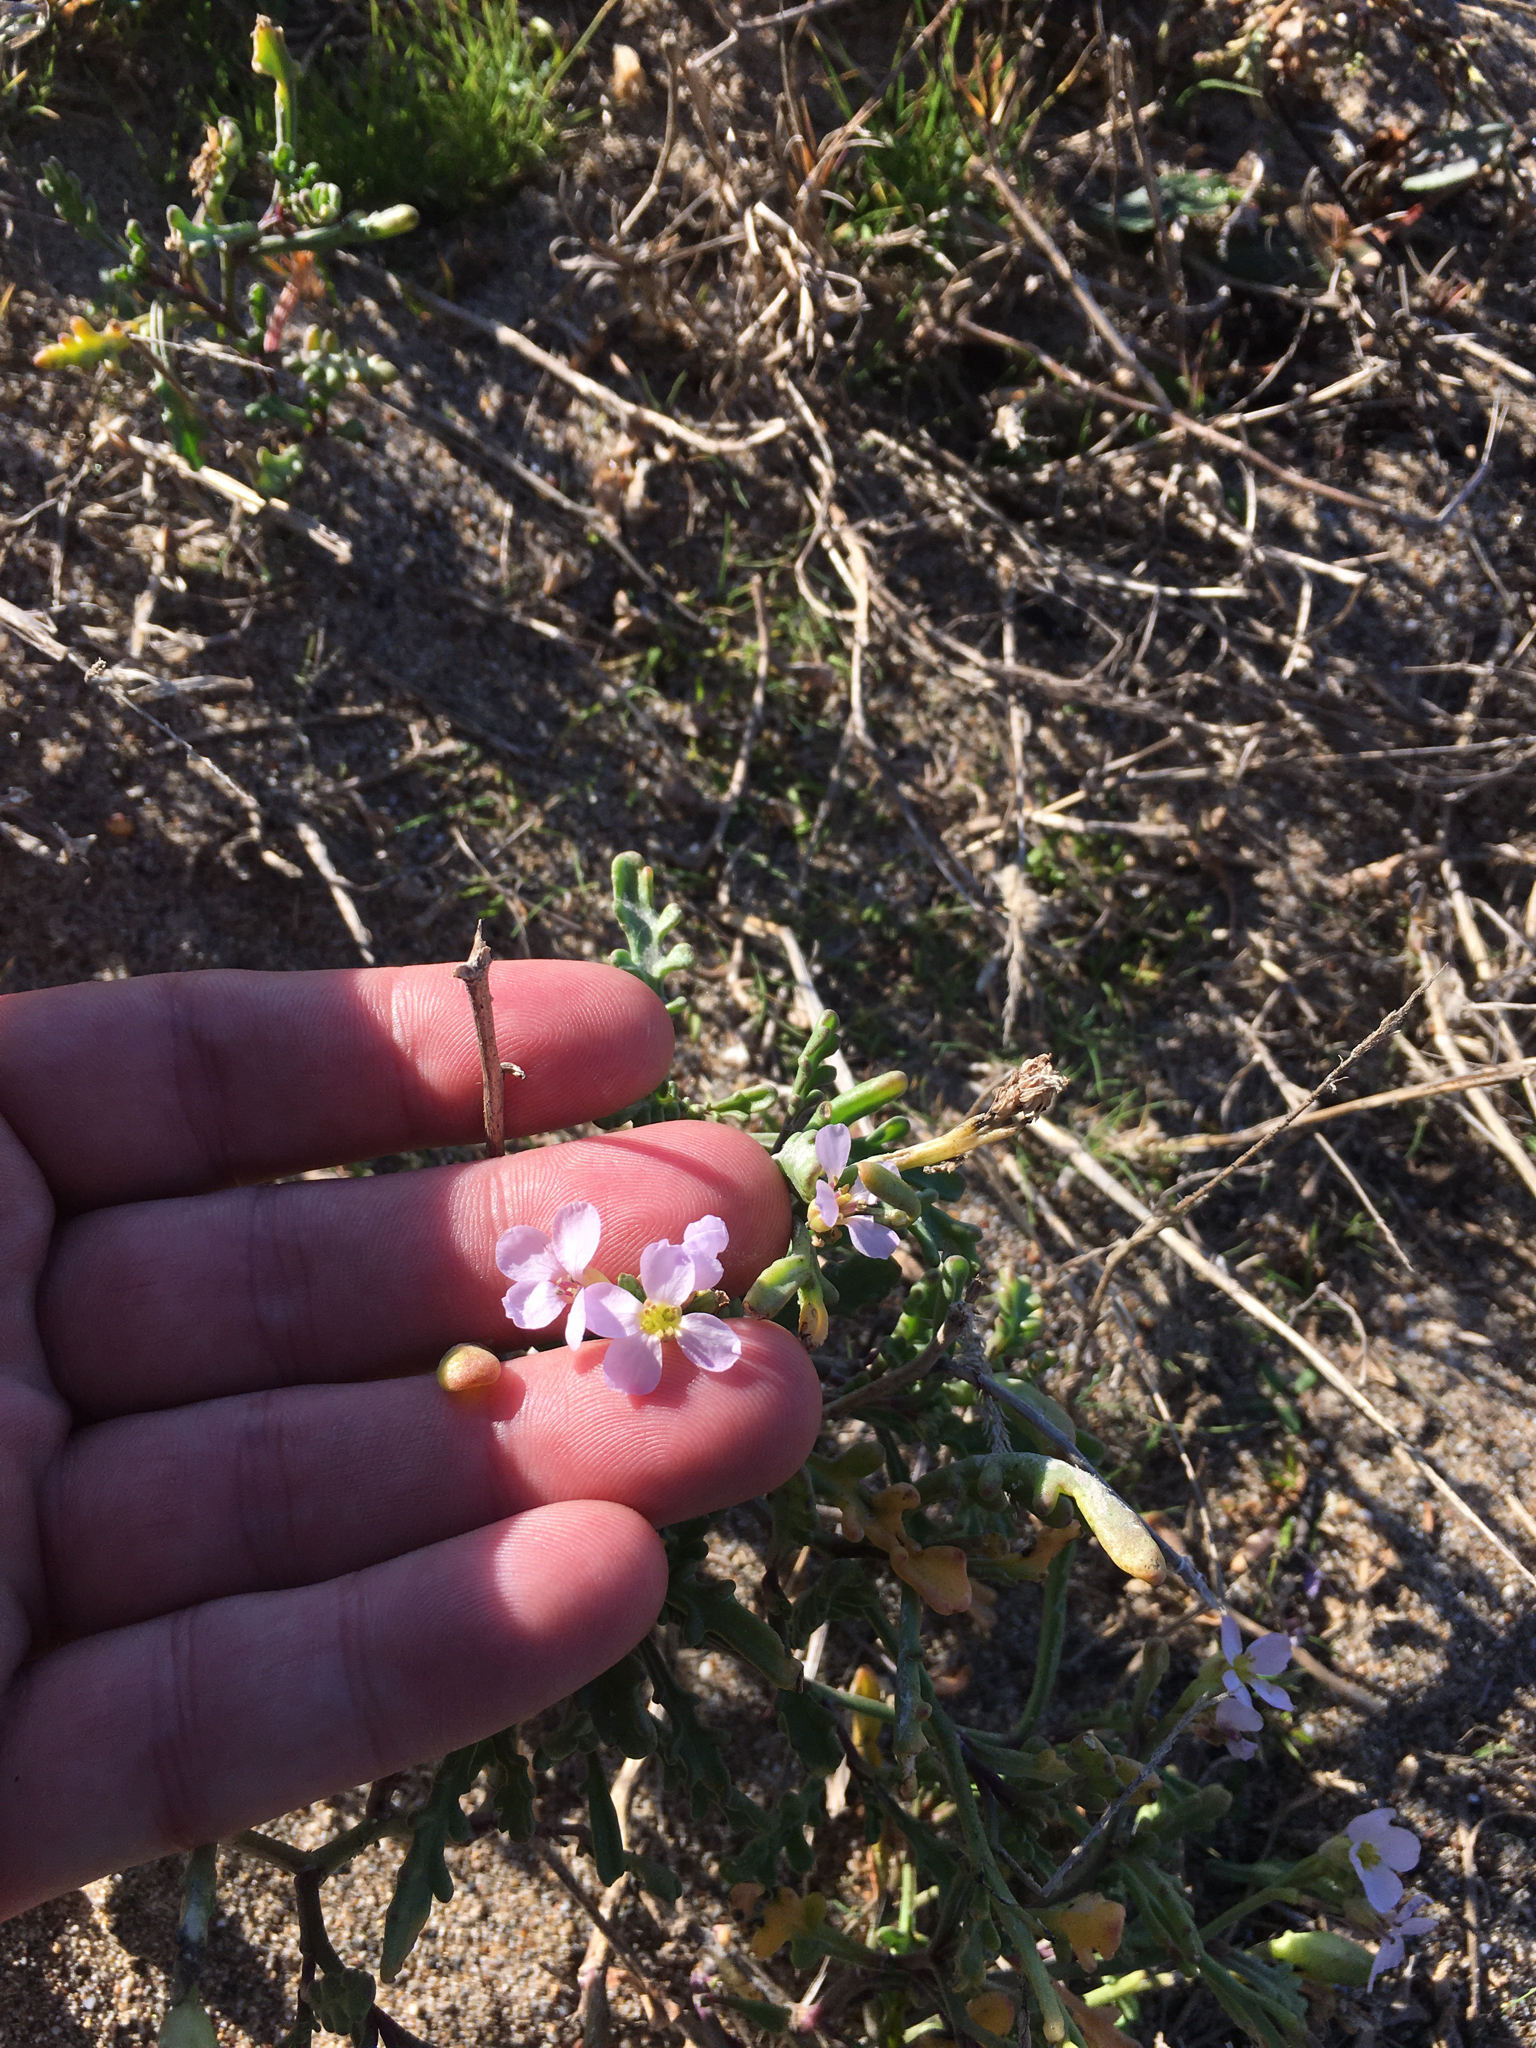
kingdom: Plantae
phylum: Tracheophyta
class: Magnoliopsida
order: Brassicales
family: Brassicaceae
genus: Cakile
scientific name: Cakile maritima
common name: Sea rocket
